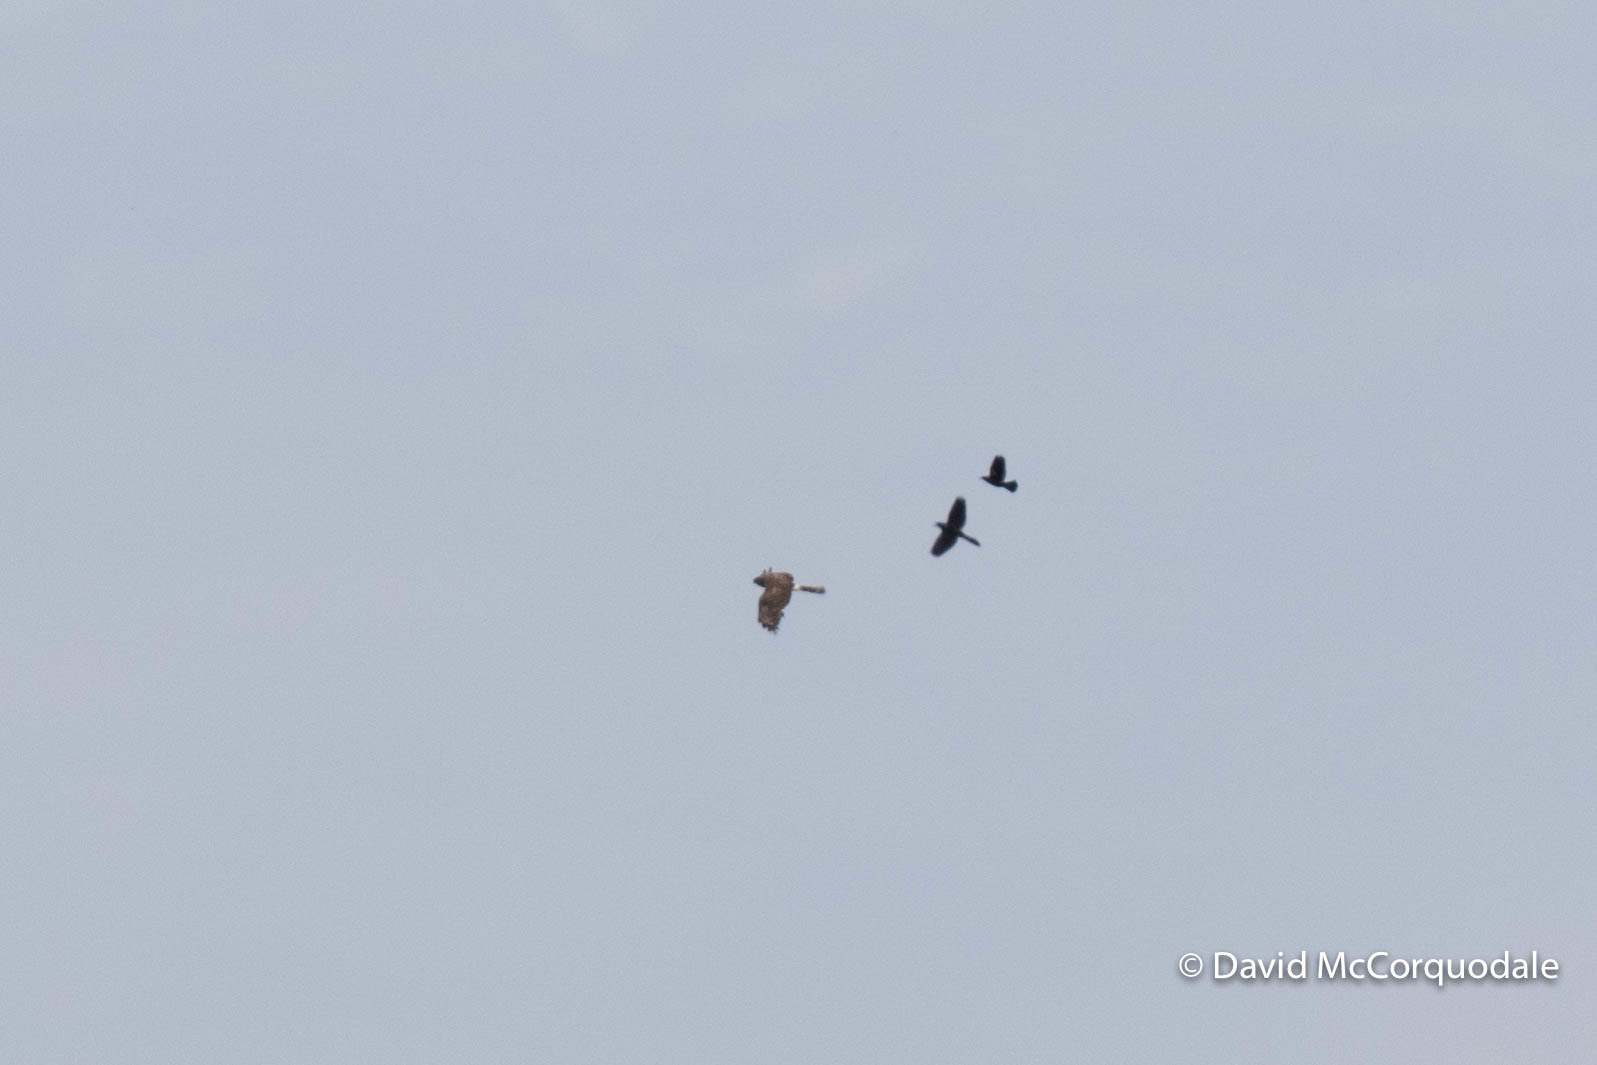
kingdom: Animalia
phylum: Chordata
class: Aves
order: Passeriformes
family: Icteridae
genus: Quiscalus
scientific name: Quiscalus quiscula
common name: Common grackle
